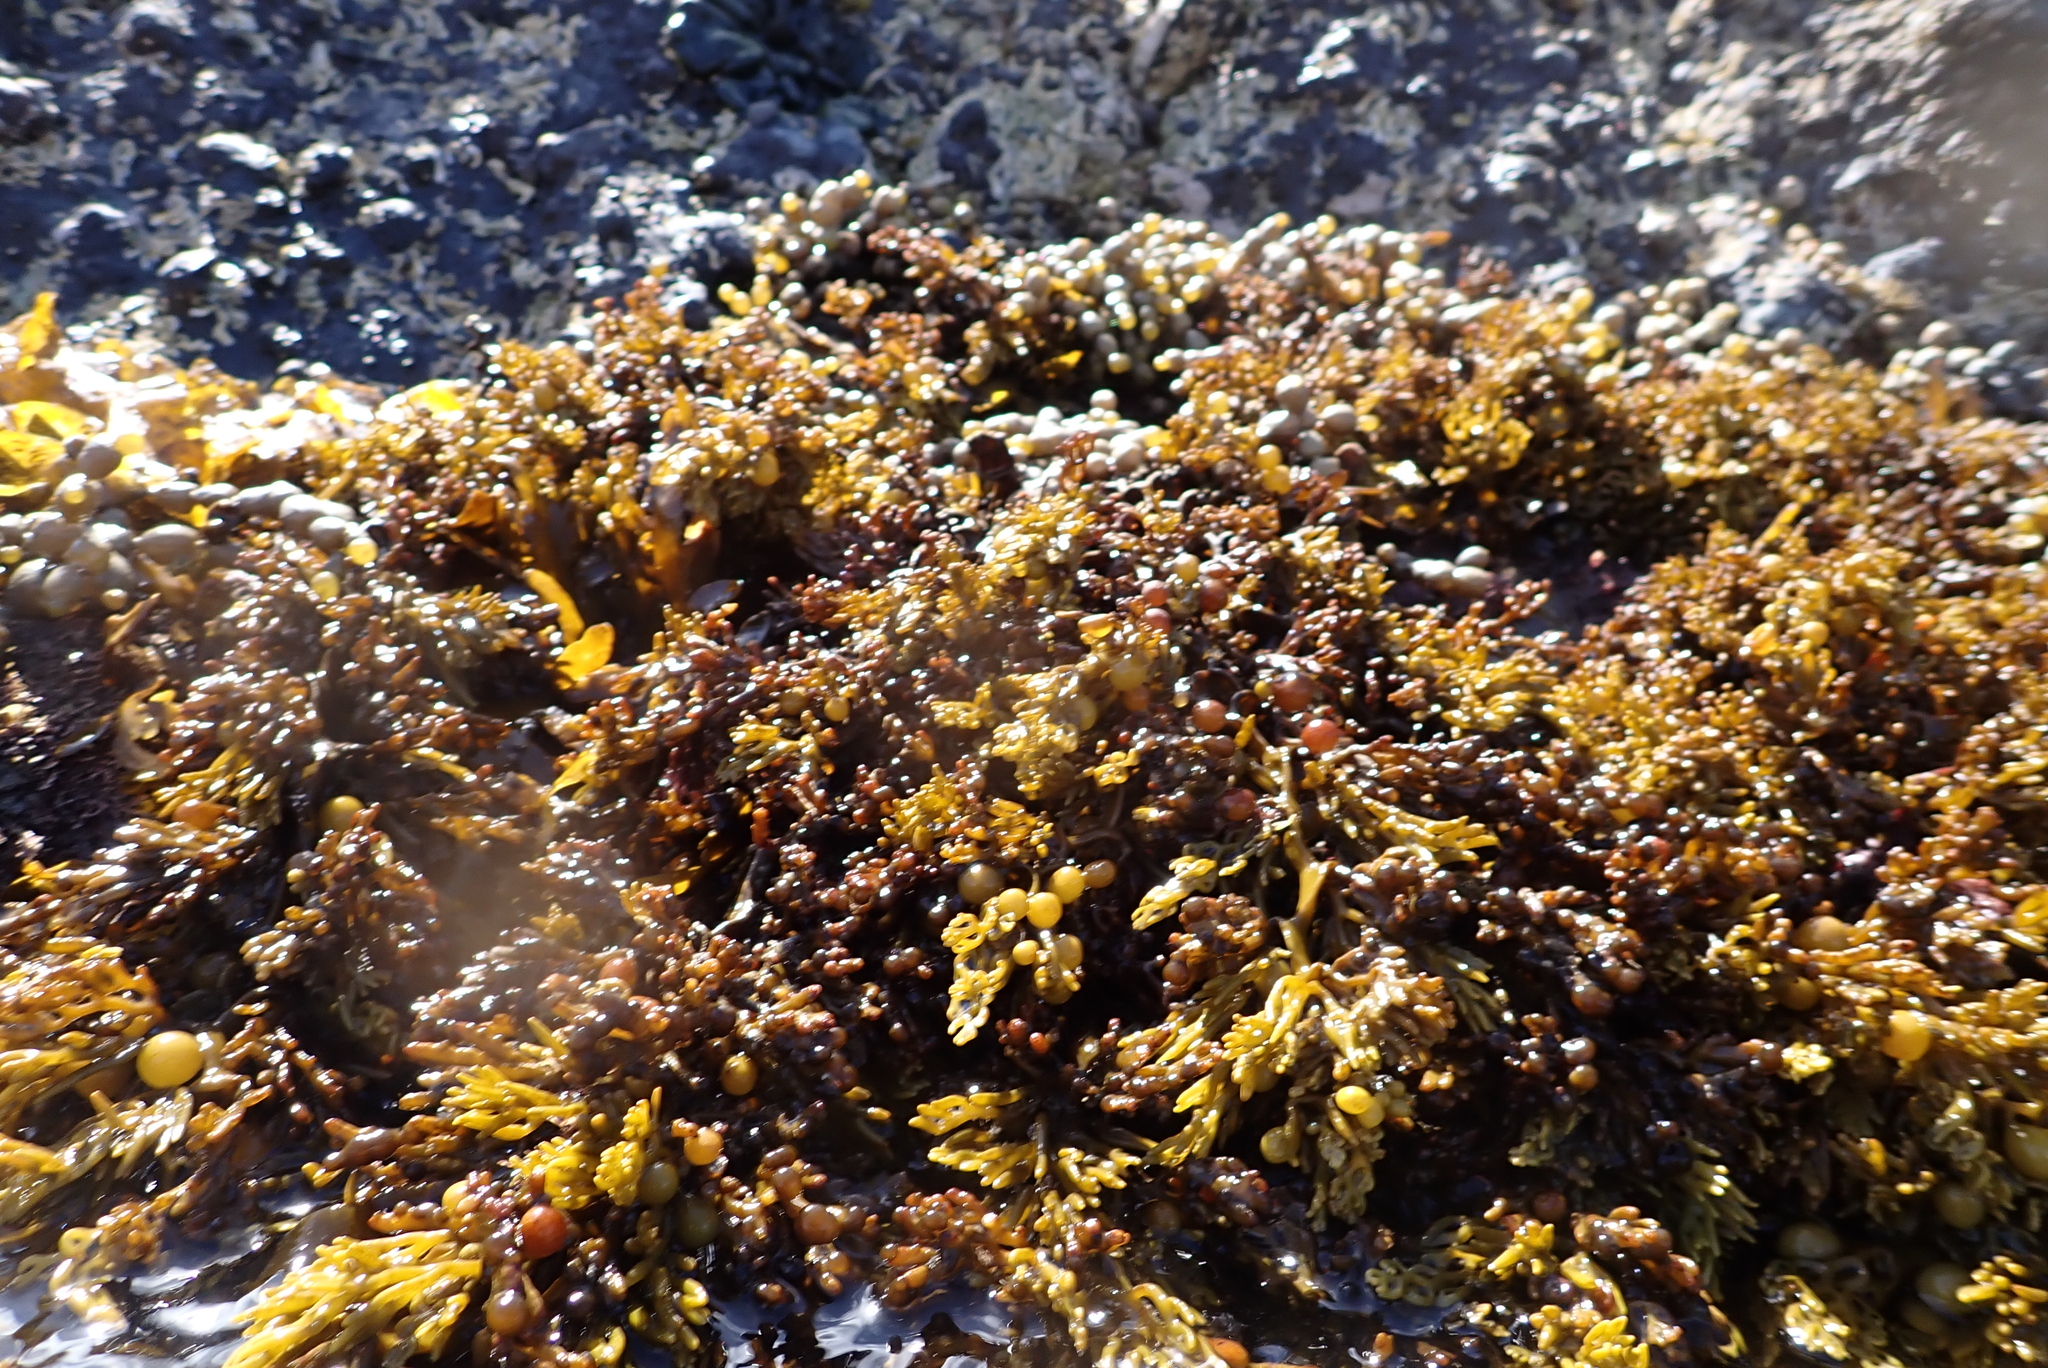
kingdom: Chromista
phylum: Ochrophyta
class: Phaeophyceae
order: Fucales
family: Sargassaceae
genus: Cystophora
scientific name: Cystophora scalaris
